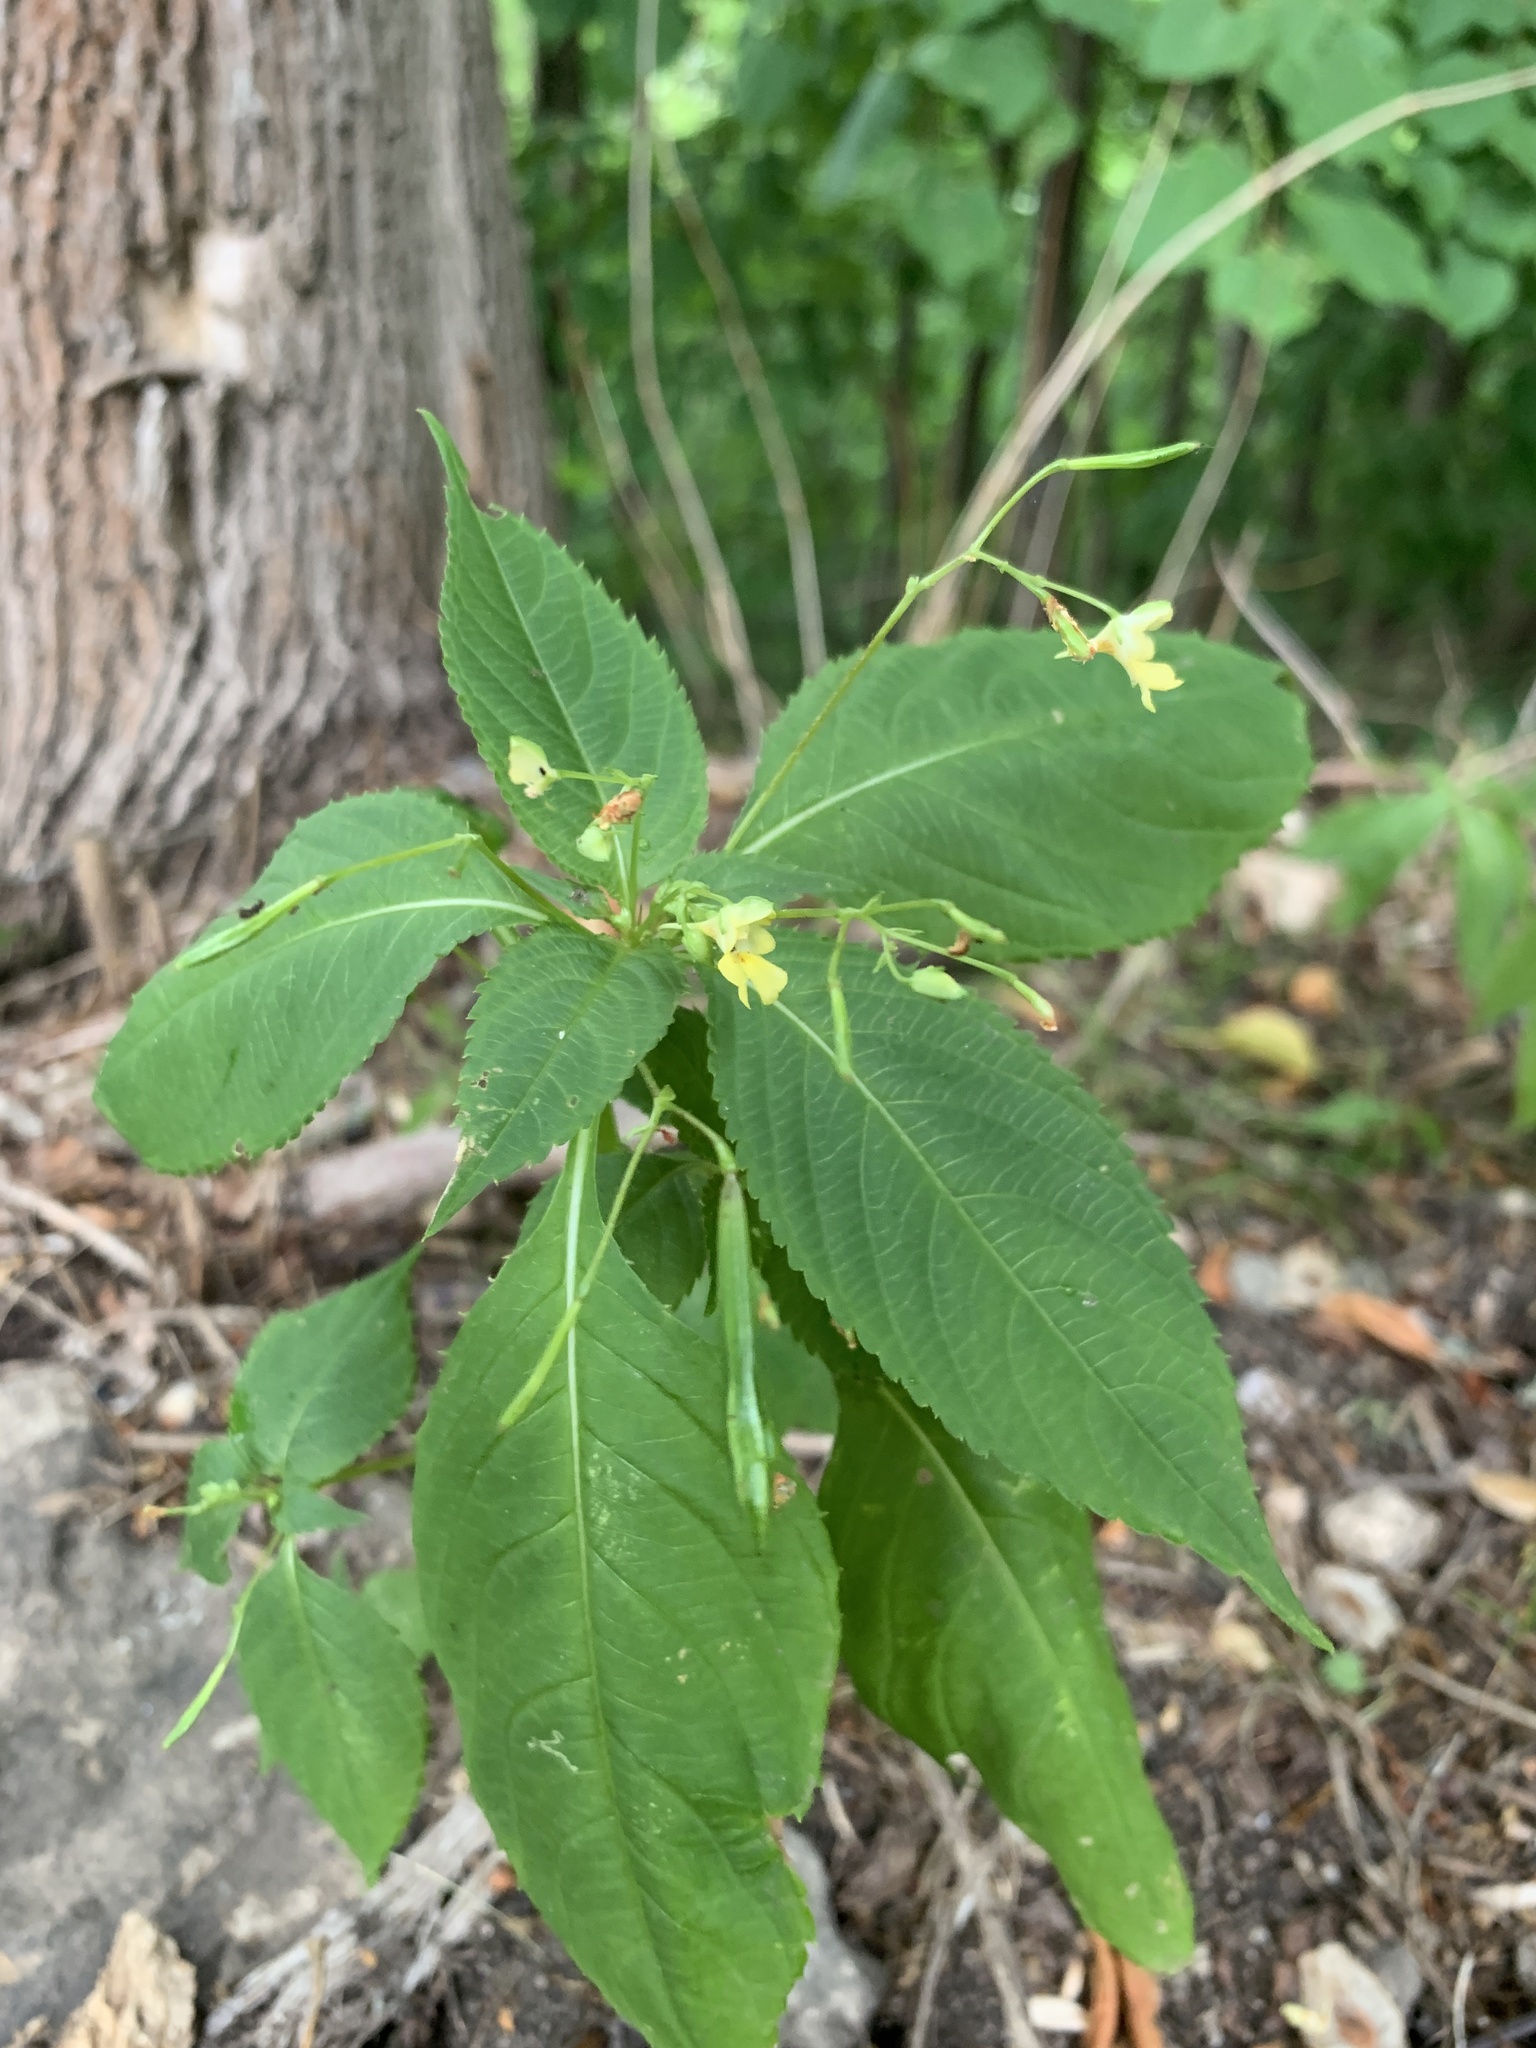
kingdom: Plantae
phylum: Tracheophyta
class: Magnoliopsida
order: Ericales
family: Balsaminaceae
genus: Impatiens
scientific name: Impatiens parviflora
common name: Small balsam
